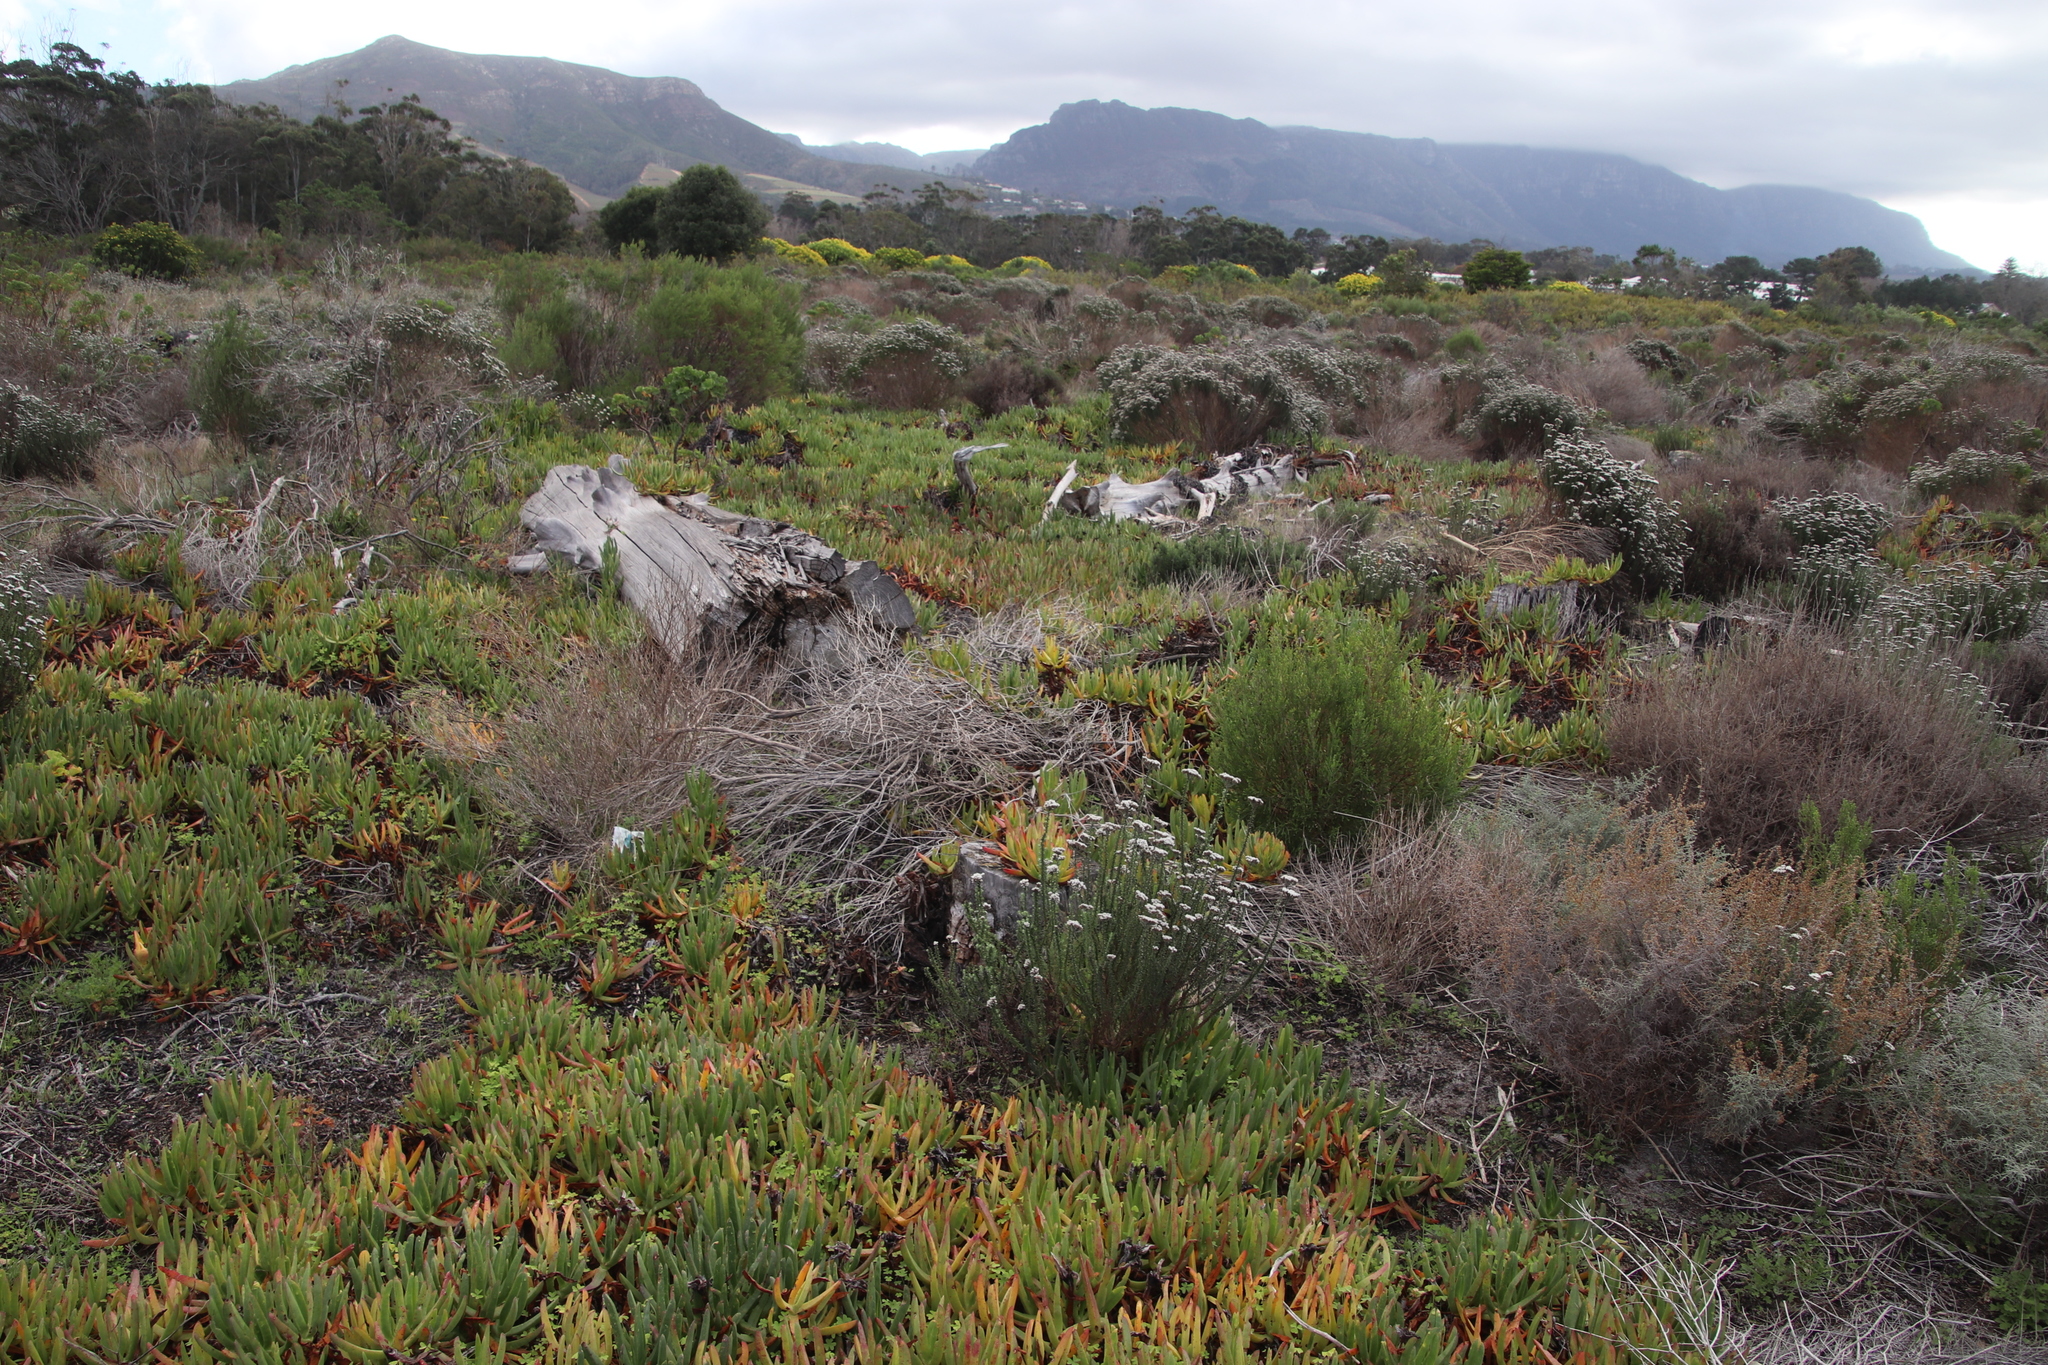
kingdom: Plantae
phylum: Tracheophyta
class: Magnoliopsida
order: Caryophyllales
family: Aizoaceae
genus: Carpobrotus
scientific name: Carpobrotus edulis
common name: Hottentot-fig
